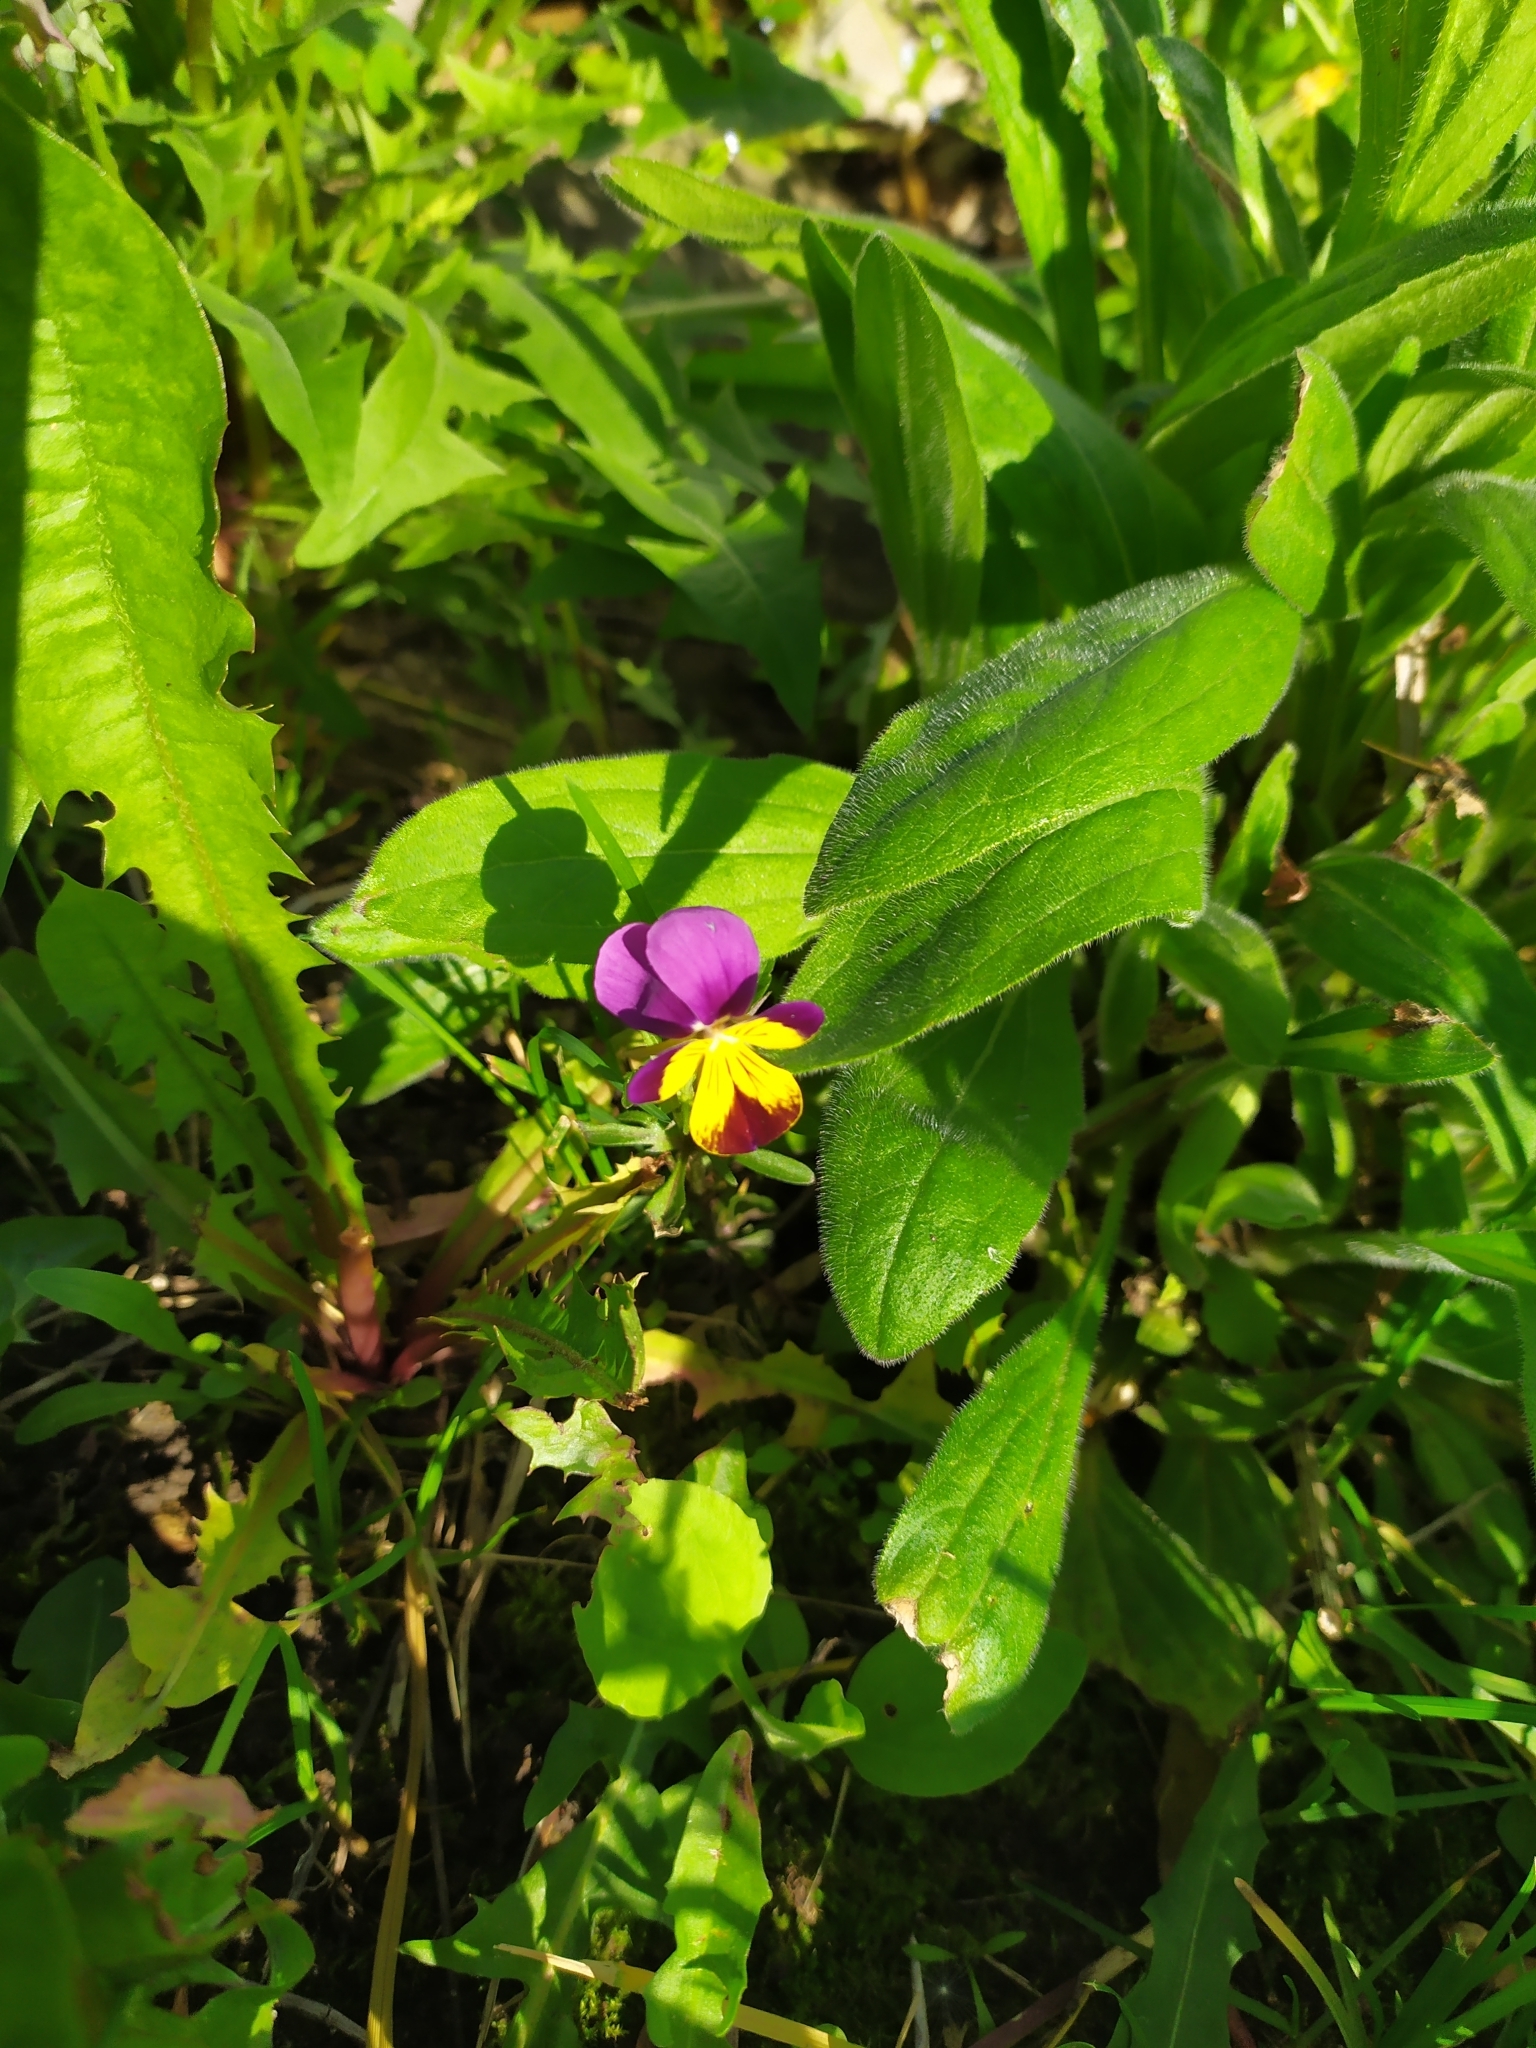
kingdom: Plantae
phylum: Tracheophyta
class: Magnoliopsida
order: Malpighiales
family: Violaceae
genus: Viola
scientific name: Viola wittrockiana
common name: Garden pansy
